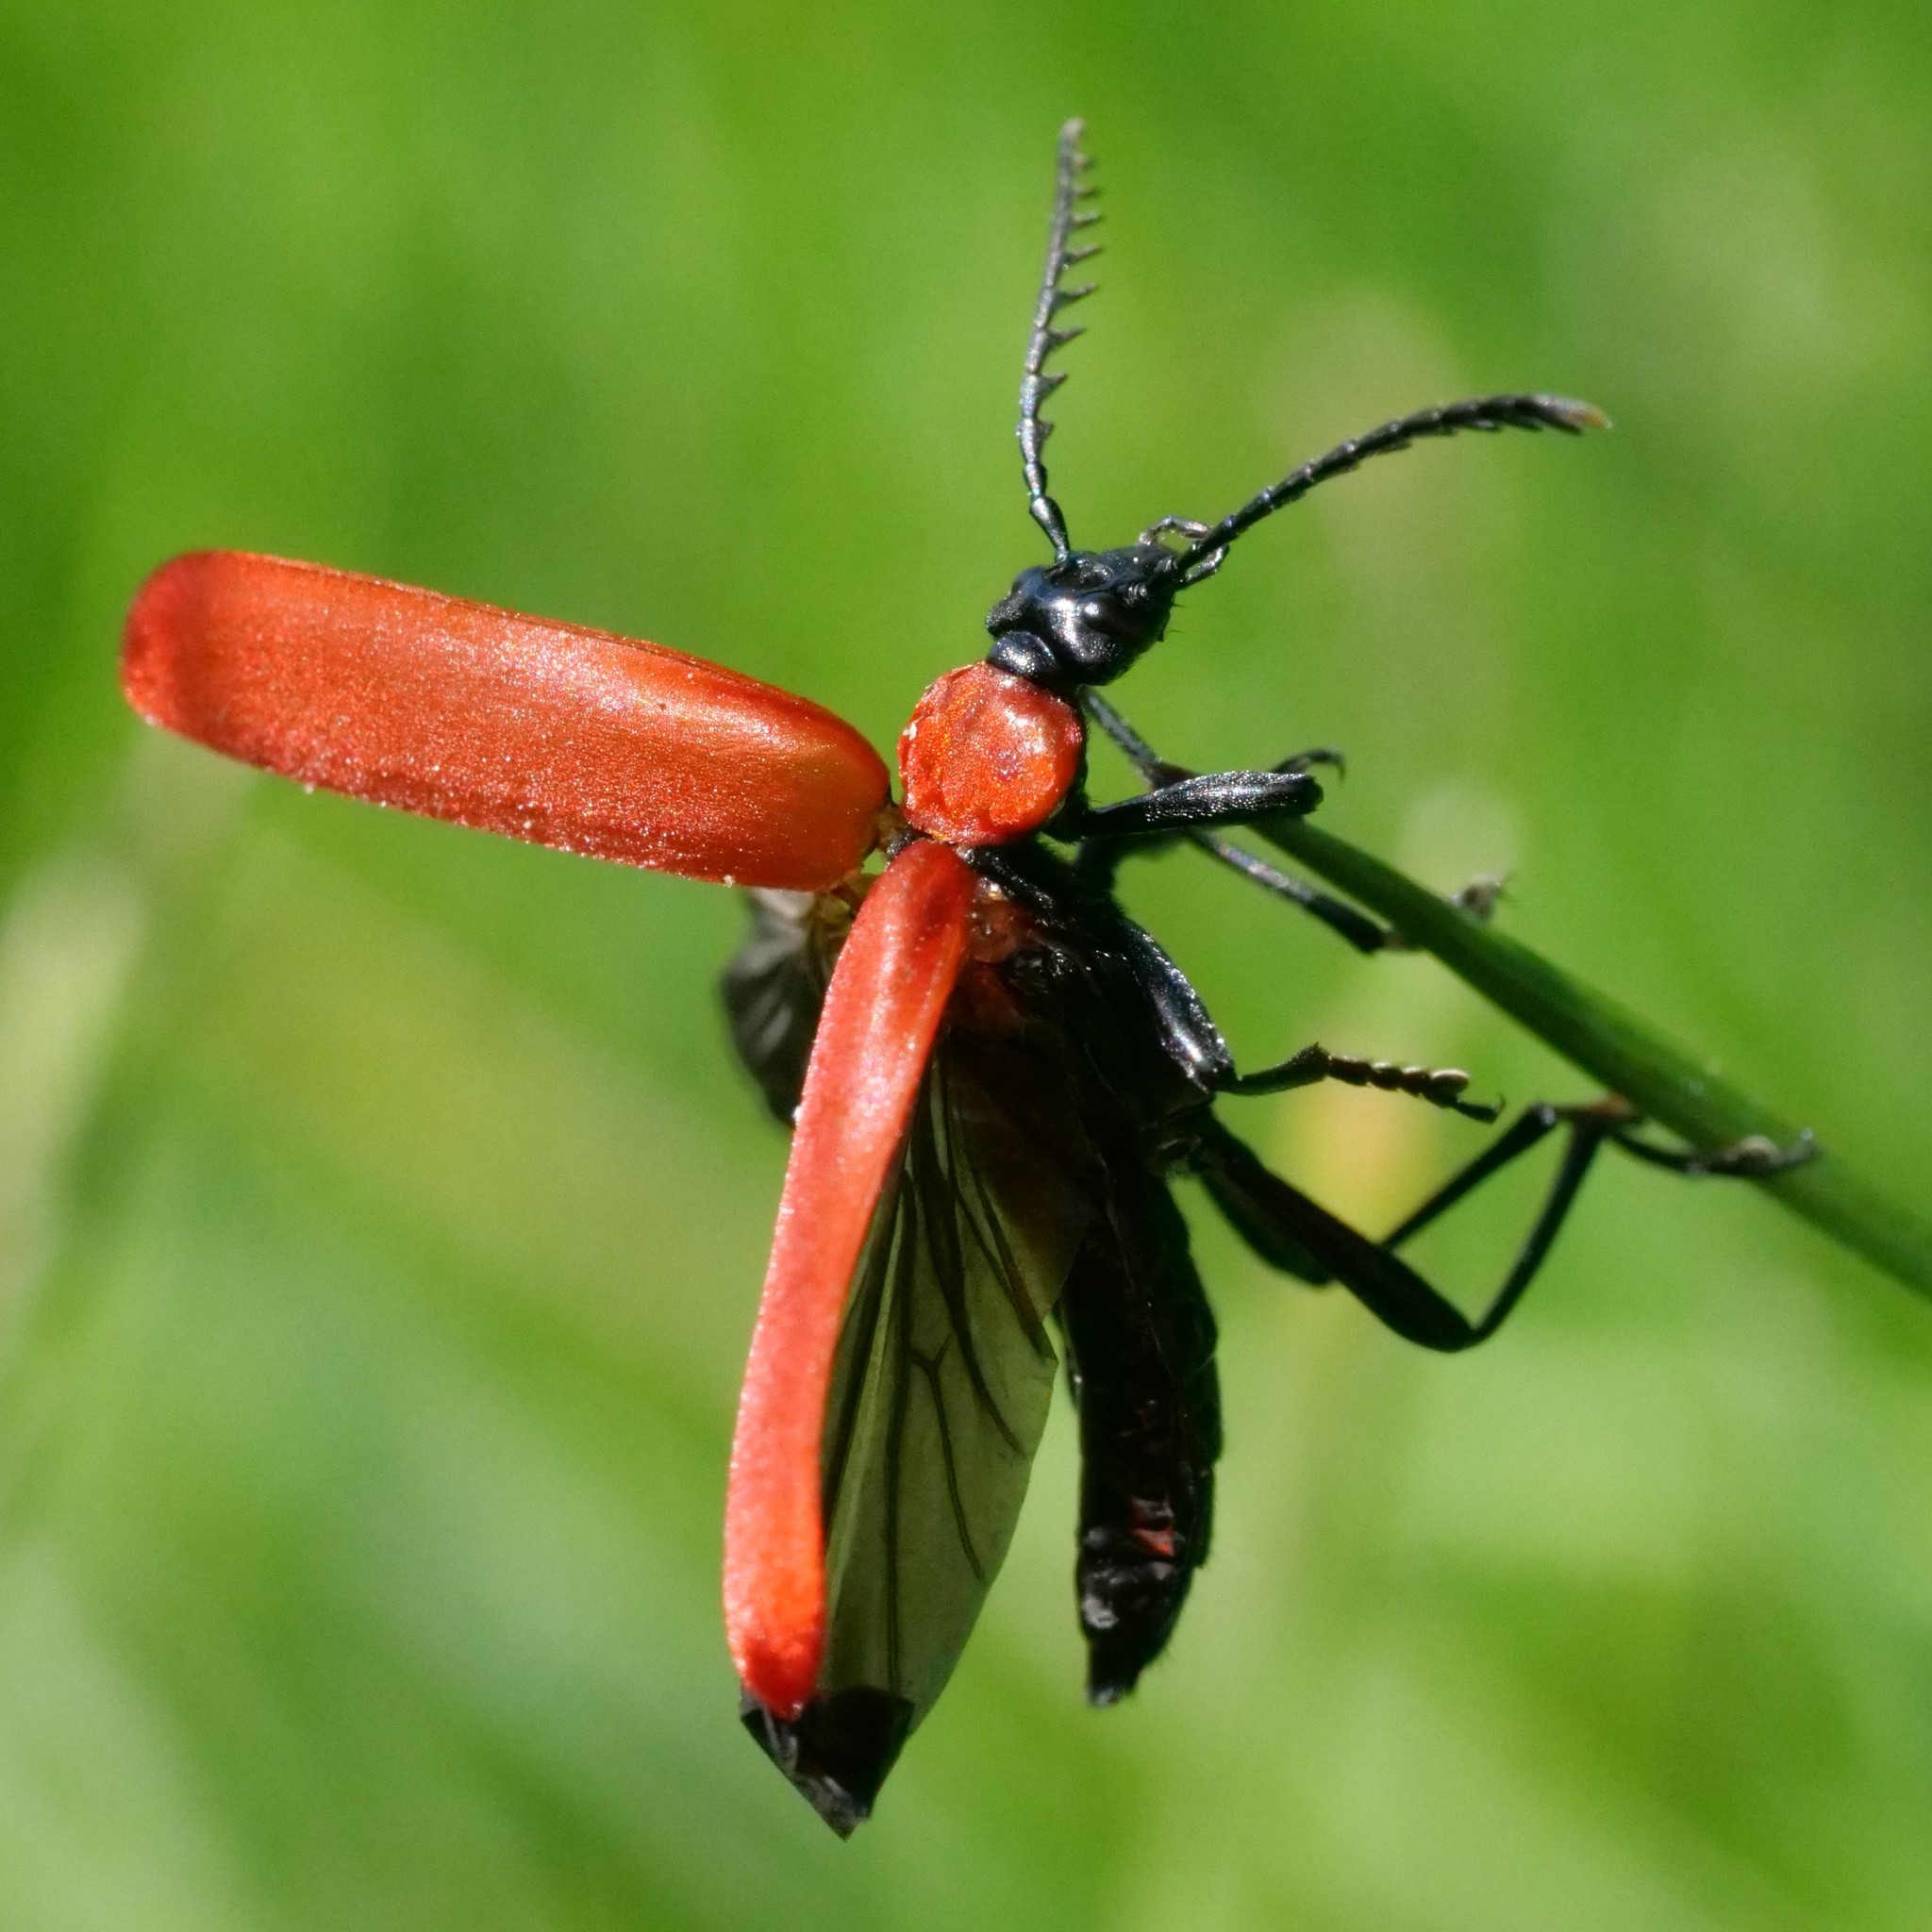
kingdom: Animalia
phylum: Arthropoda
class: Insecta
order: Coleoptera
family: Pyrochroidae
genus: Pyrochroa
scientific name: Pyrochroa coccinea
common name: Black-headed cardinal beetle
